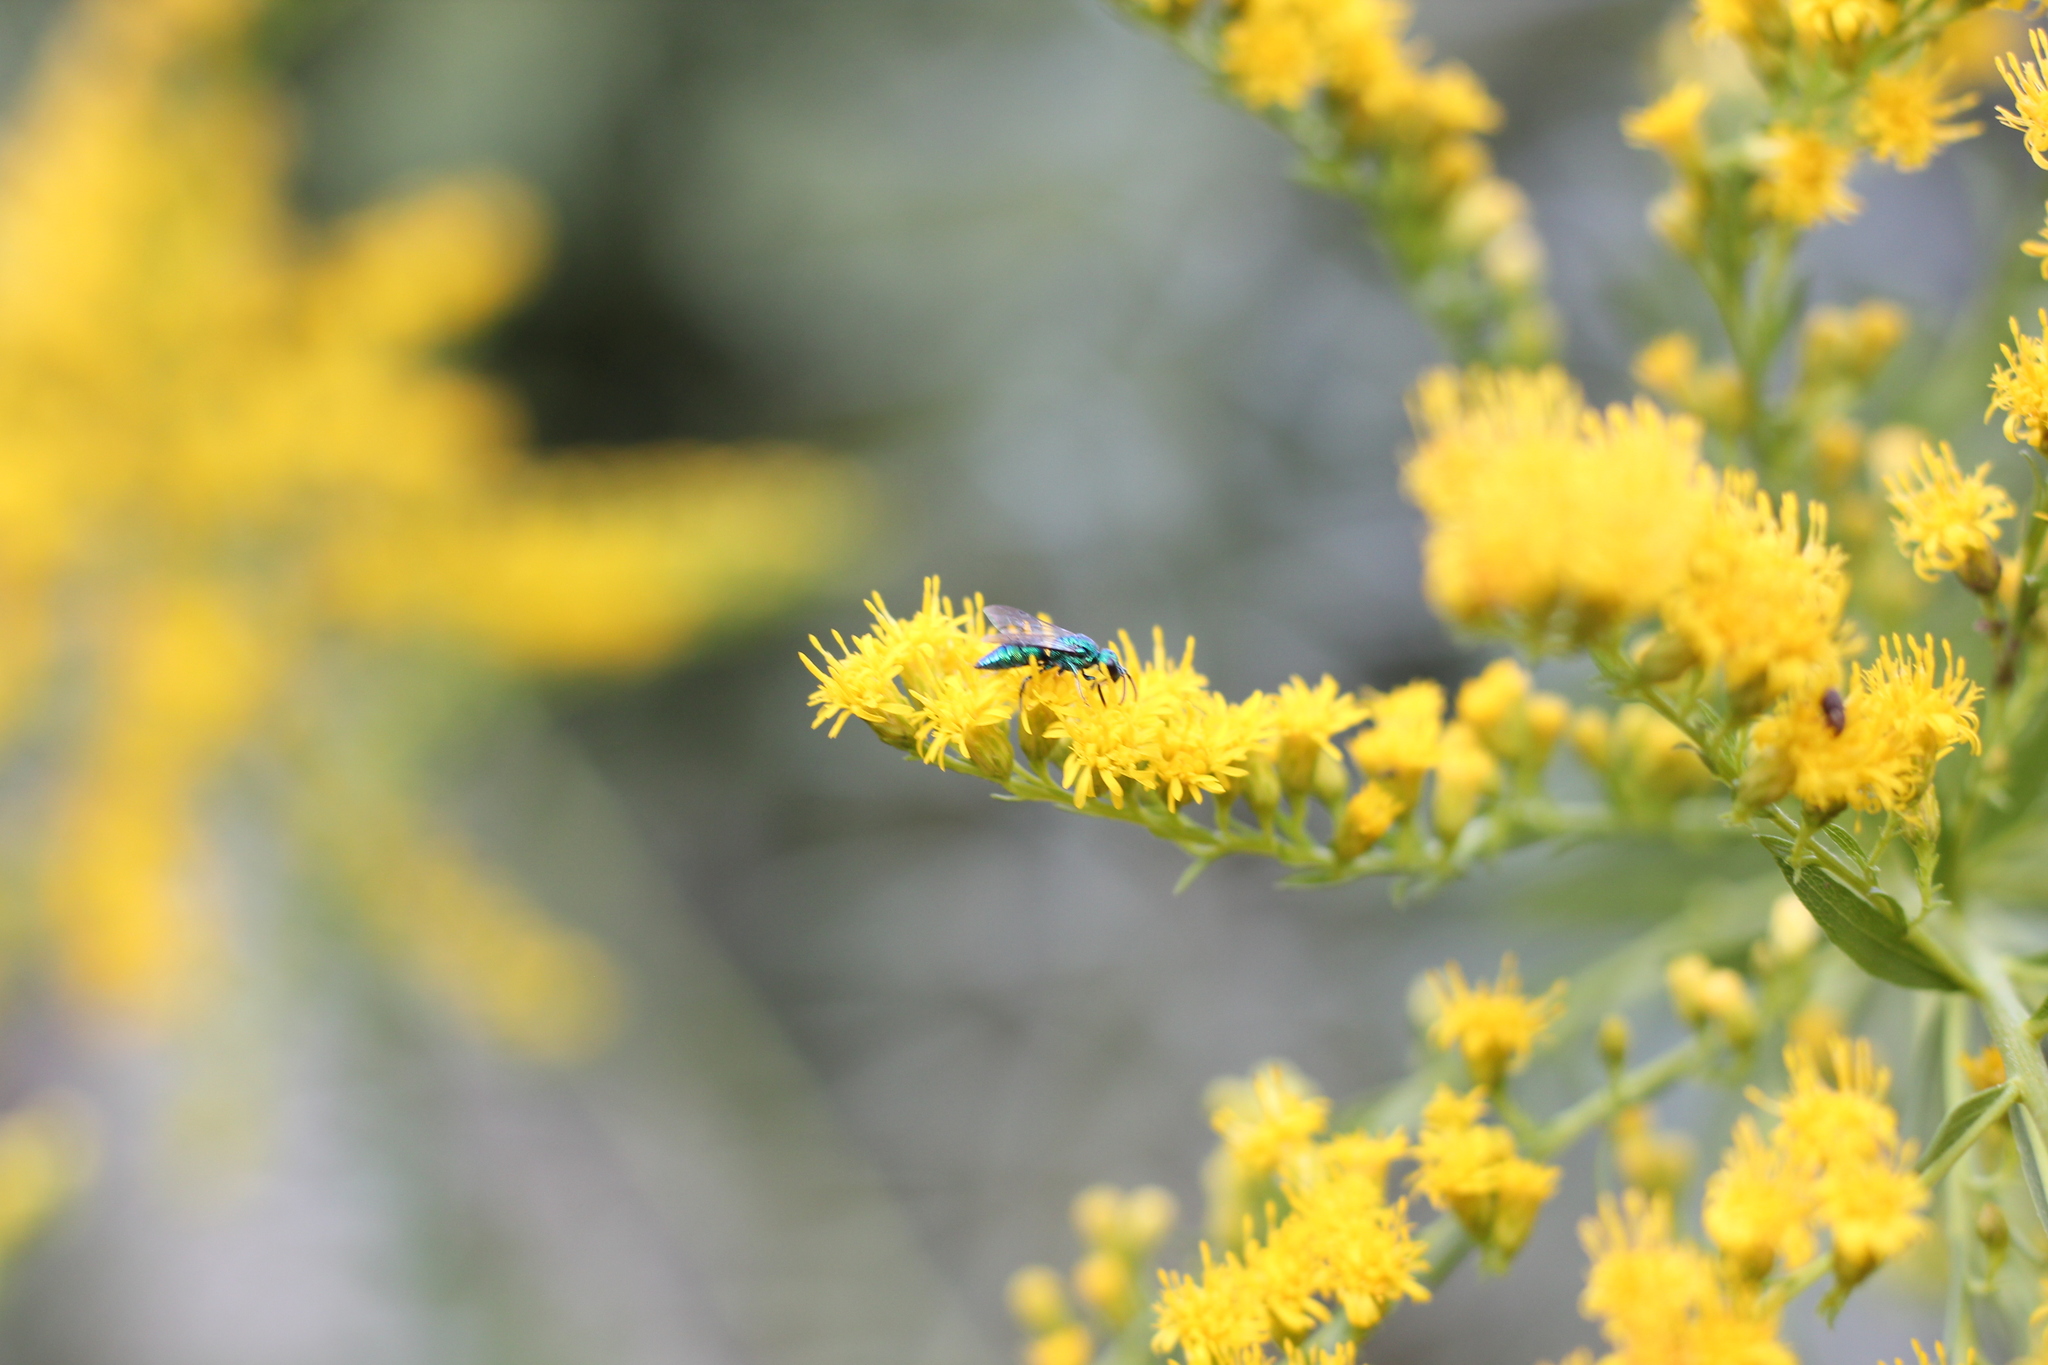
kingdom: Animalia
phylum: Arthropoda
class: Insecta
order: Hymenoptera
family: Halictidae
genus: Temnosoma
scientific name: Temnosoma
